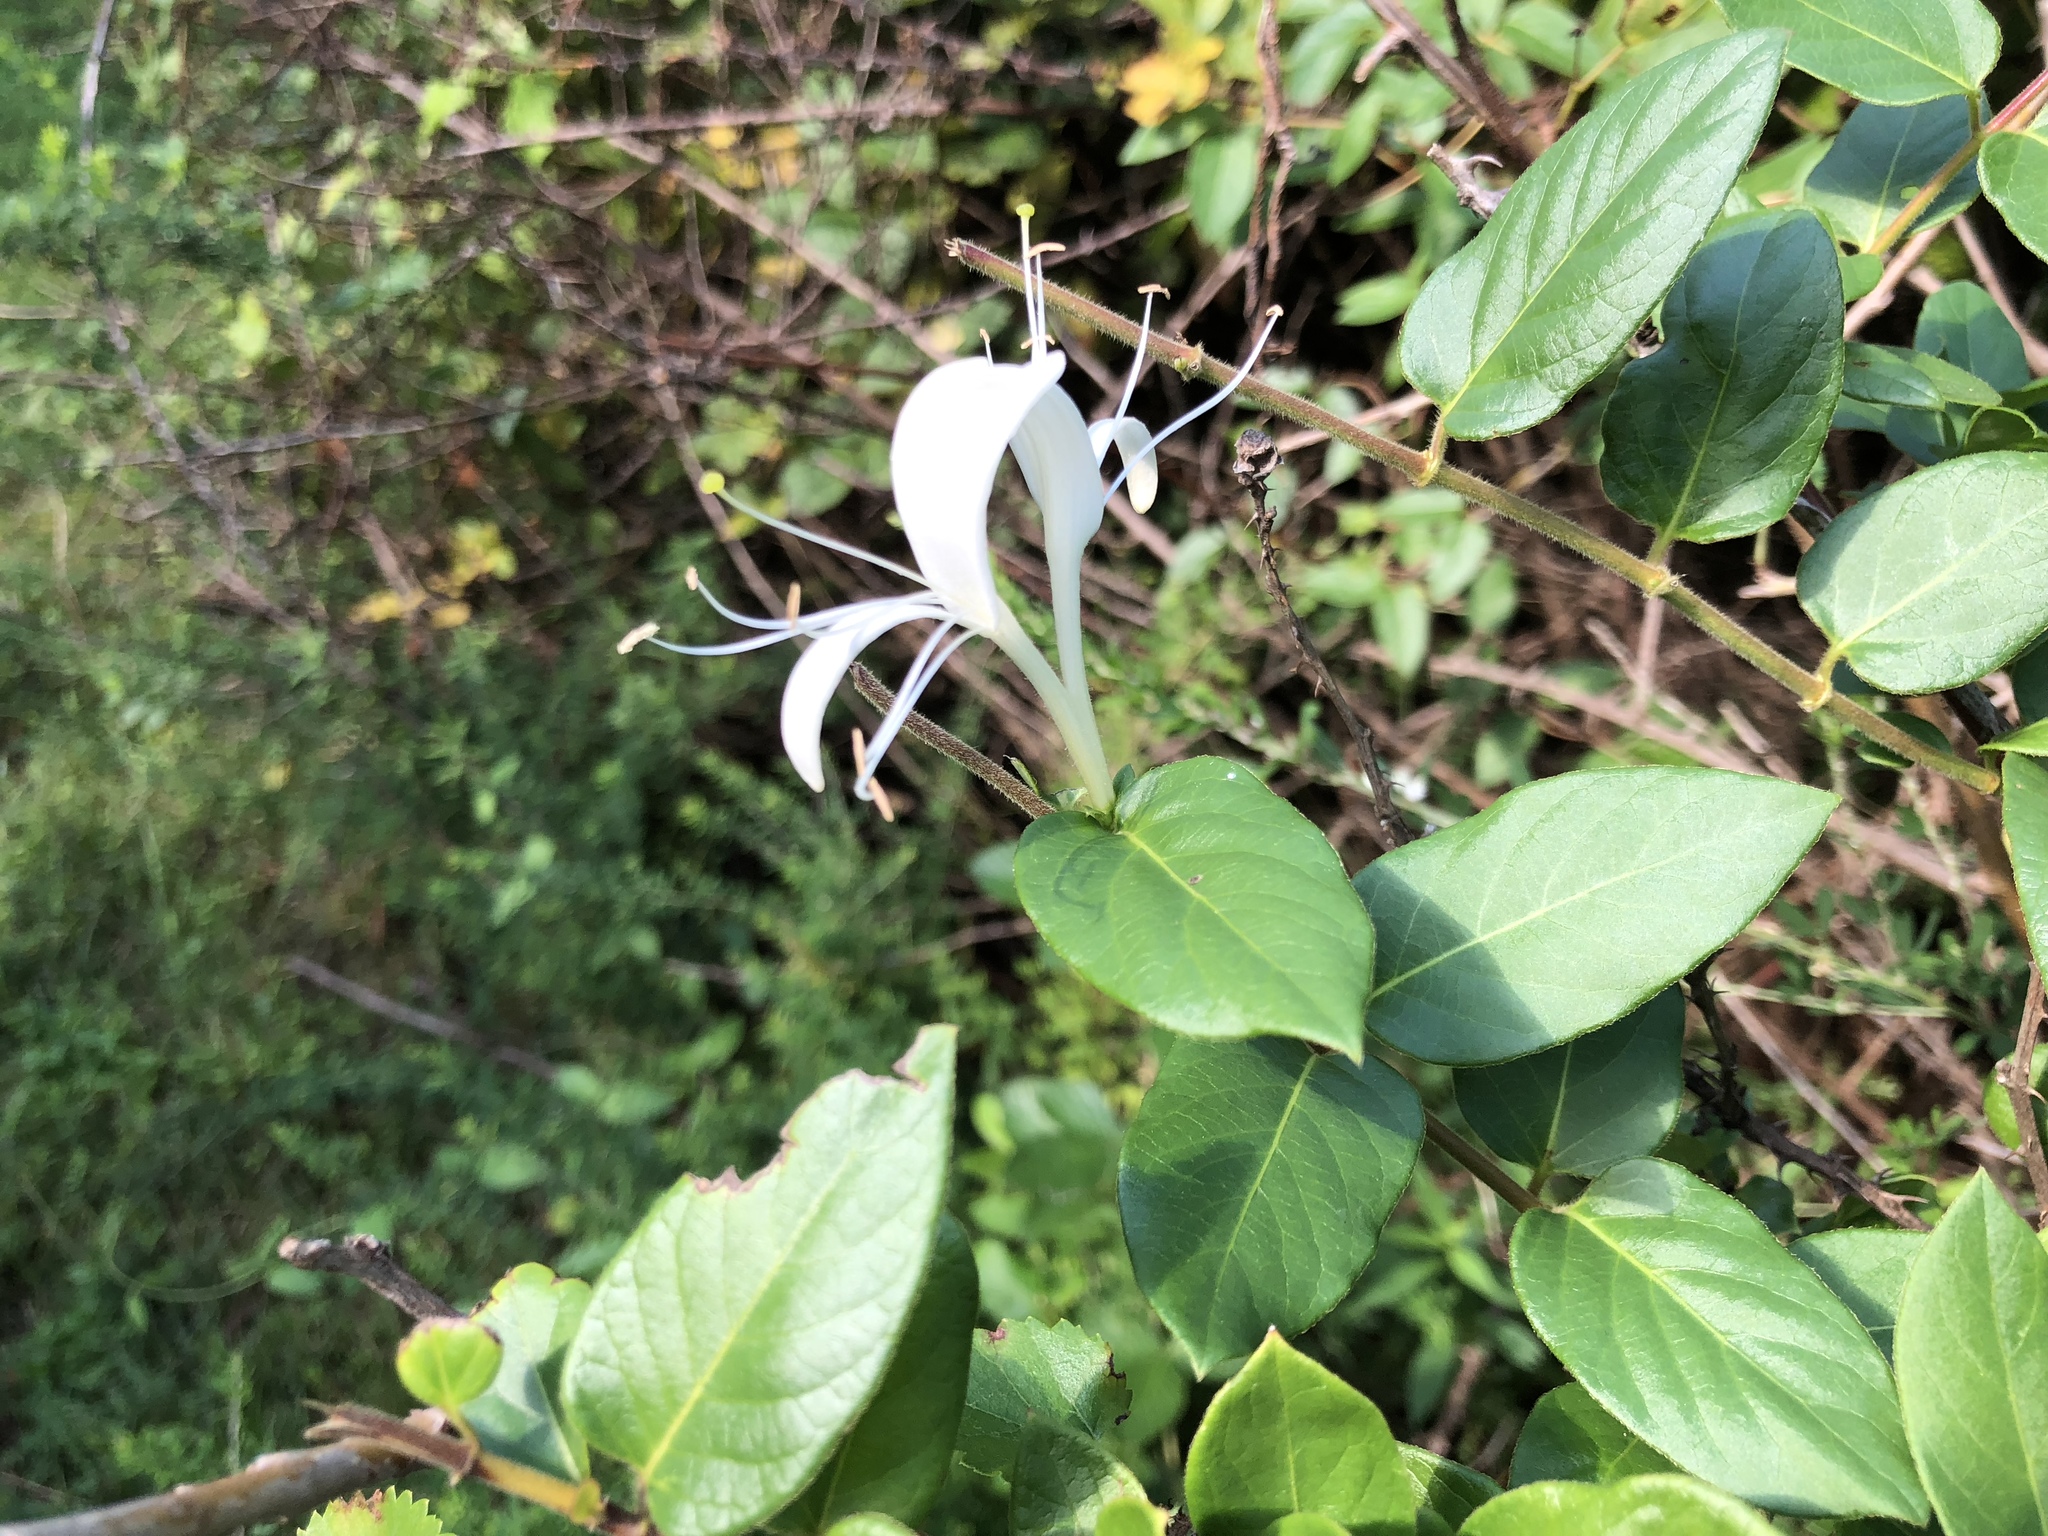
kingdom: Plantae
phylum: Tracheophyta
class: Magnoliopsida
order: Dipsacales
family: Caprifoliaceae
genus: Lonicera
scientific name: Lonicera japonica
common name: Japanese honeysuckle
